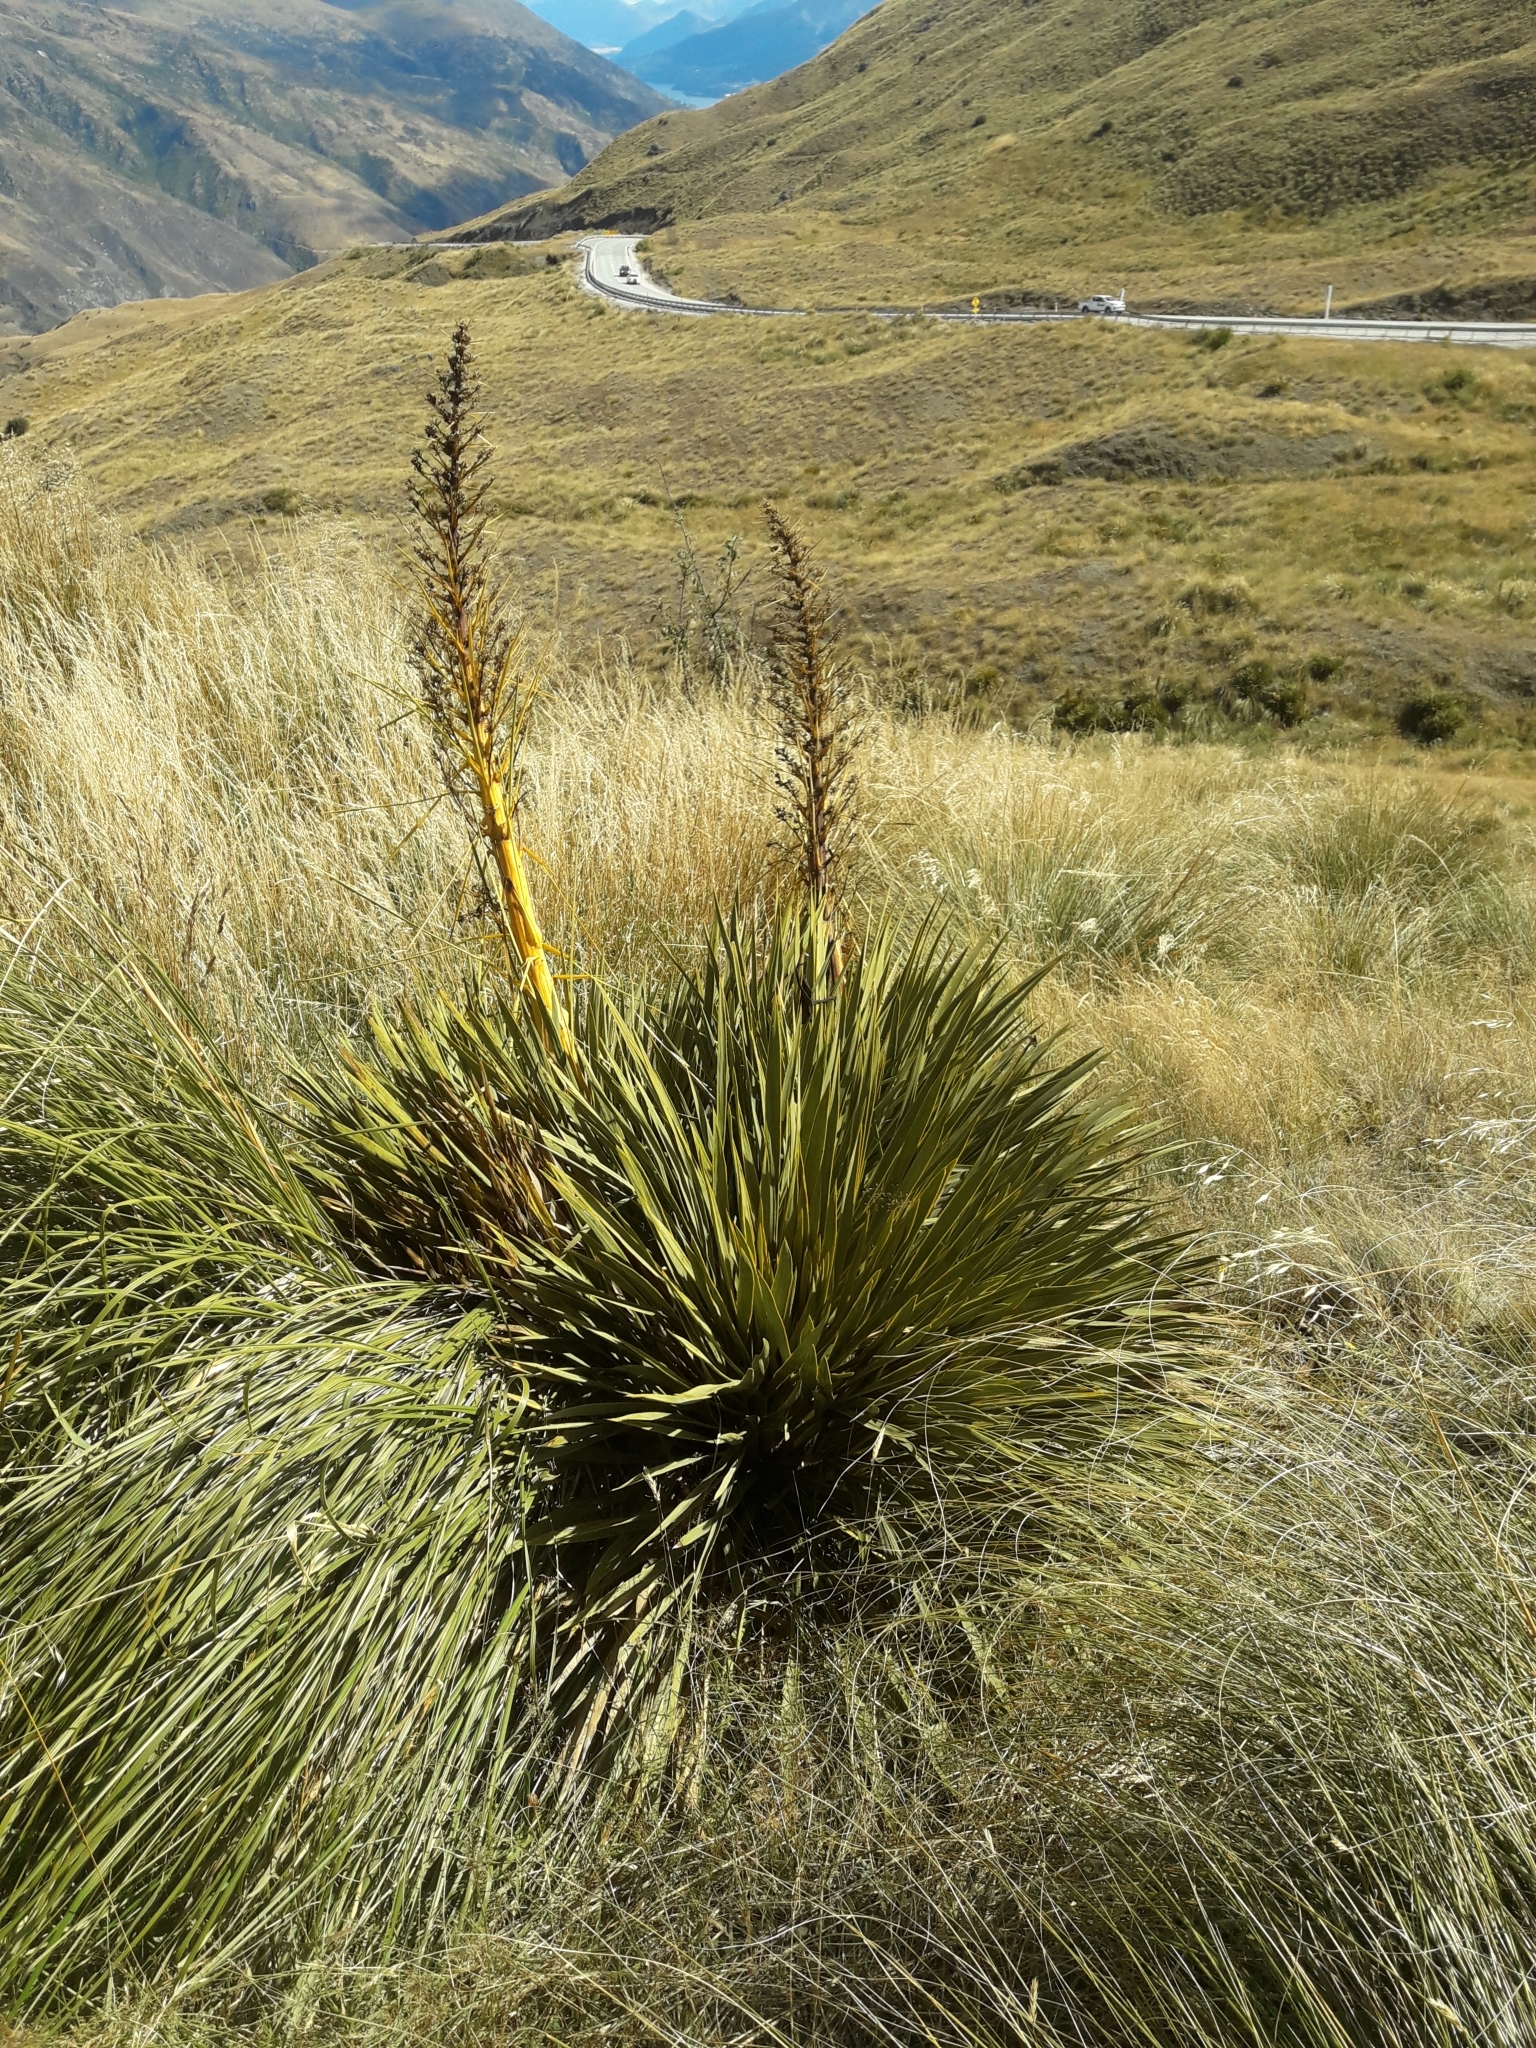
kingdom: Plantae
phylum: Tracheophyta
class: Magnoliopsida
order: Apiales
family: Apiaceae
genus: Aciphylla
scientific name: Aciphylla aurea
